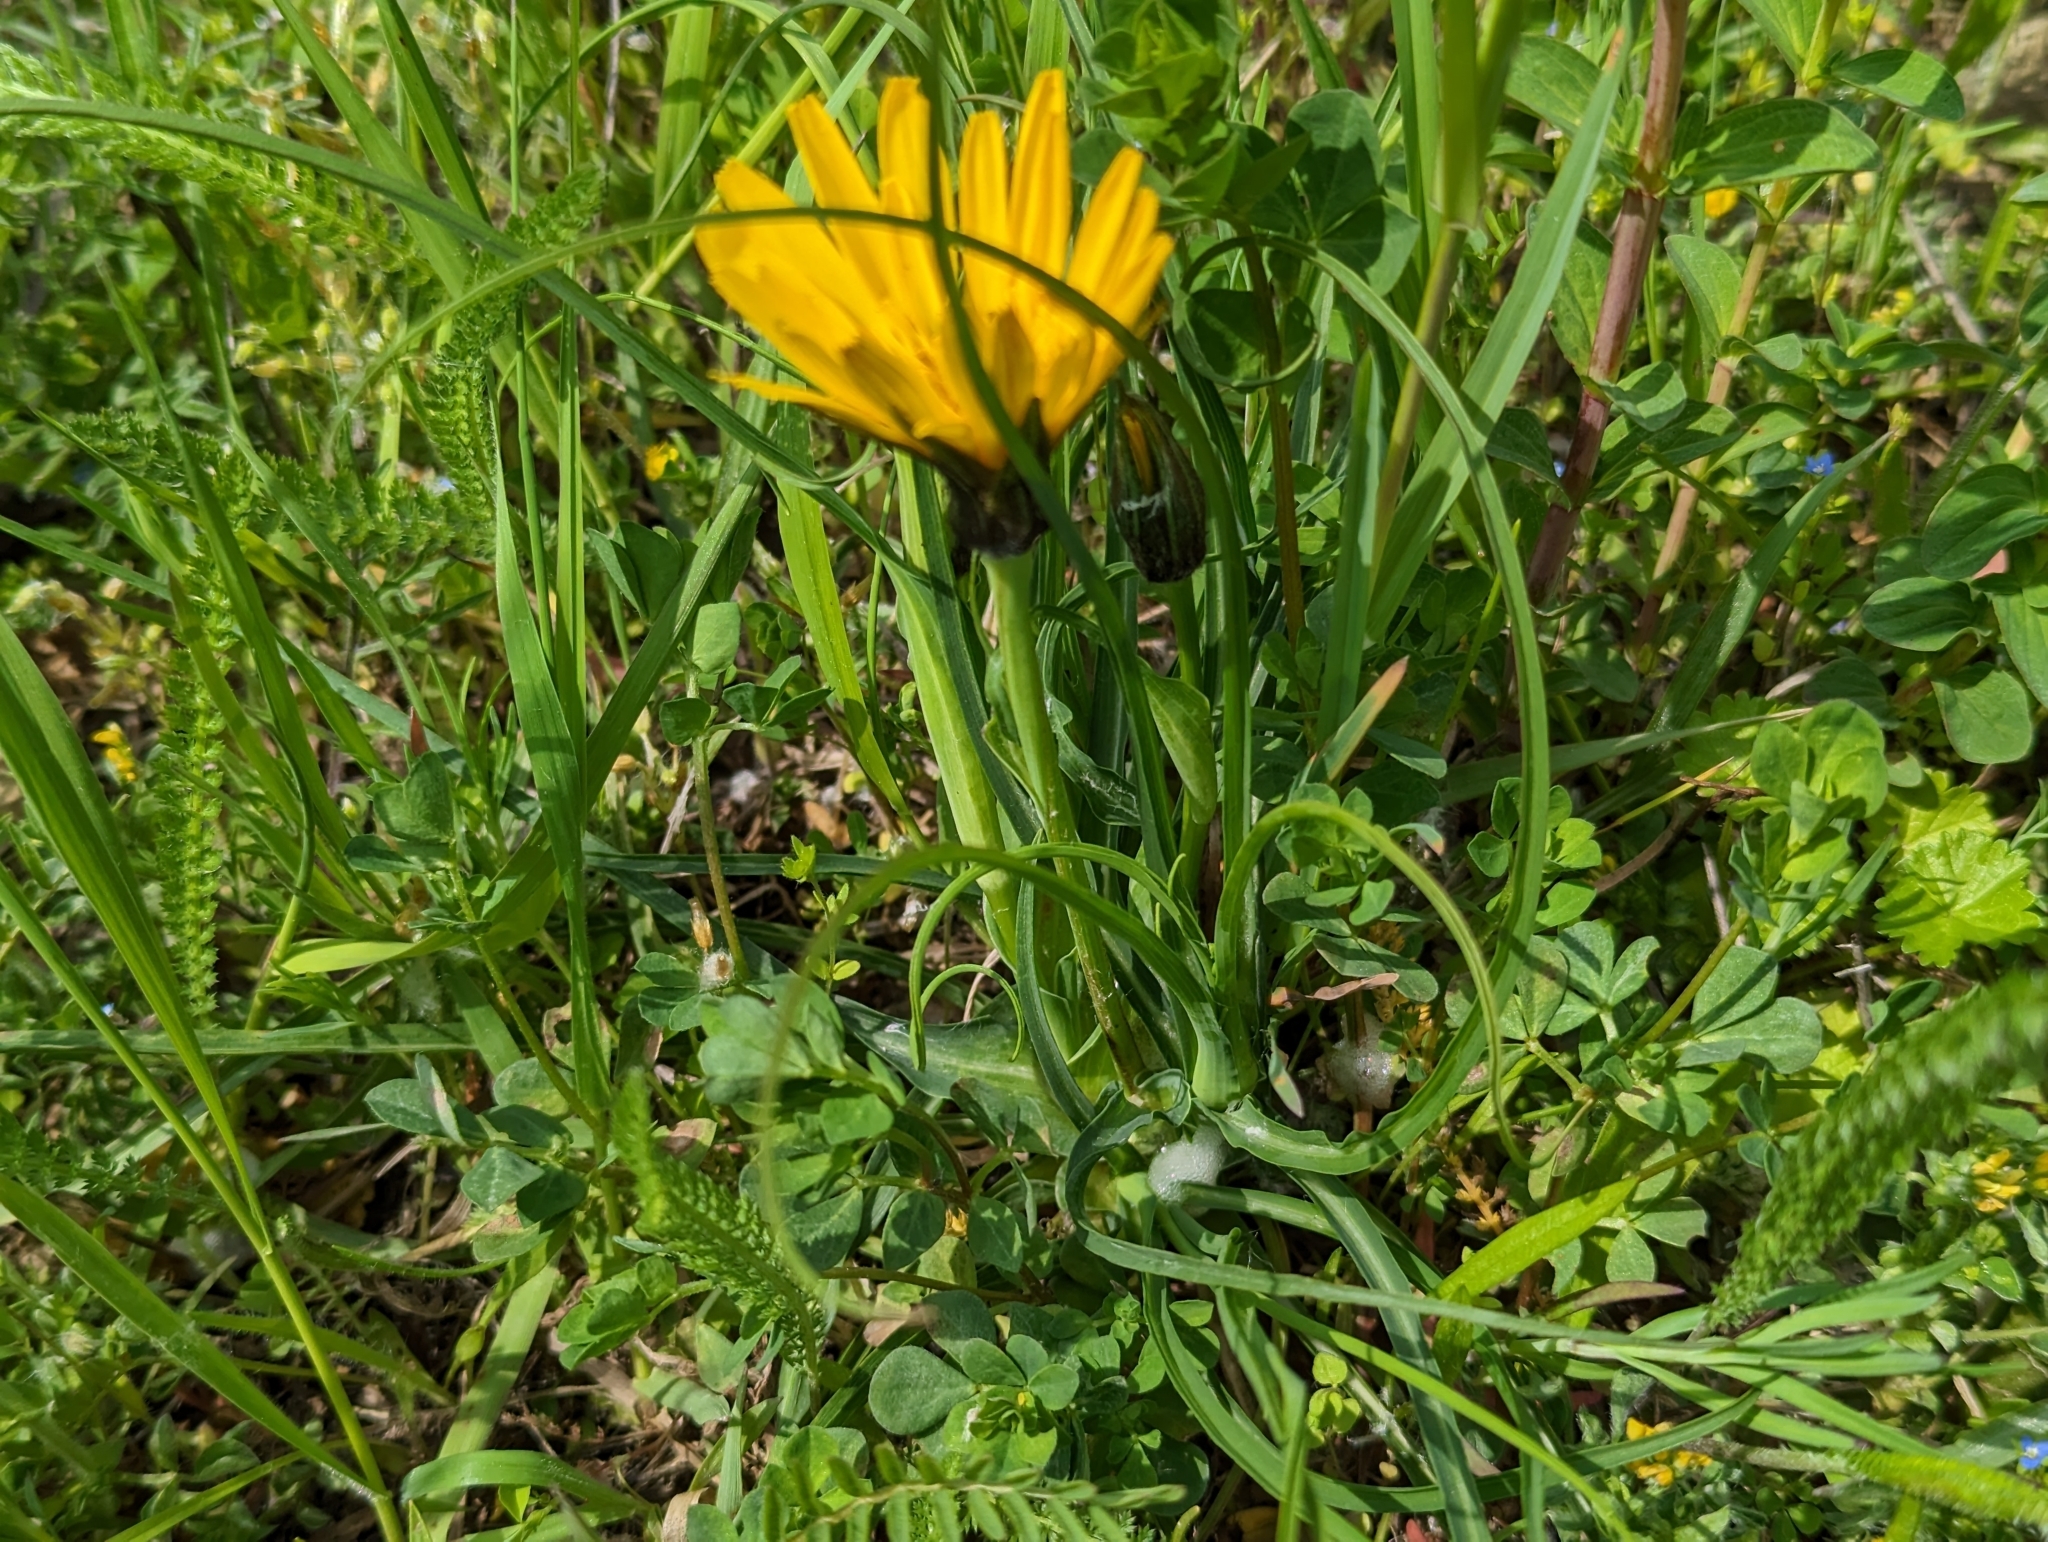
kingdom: Plantae
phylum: Tracheophyta
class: Magnoliopsida
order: Asterales
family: Asteraceae
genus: Tragopogon
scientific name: Tragopogon orientalis
